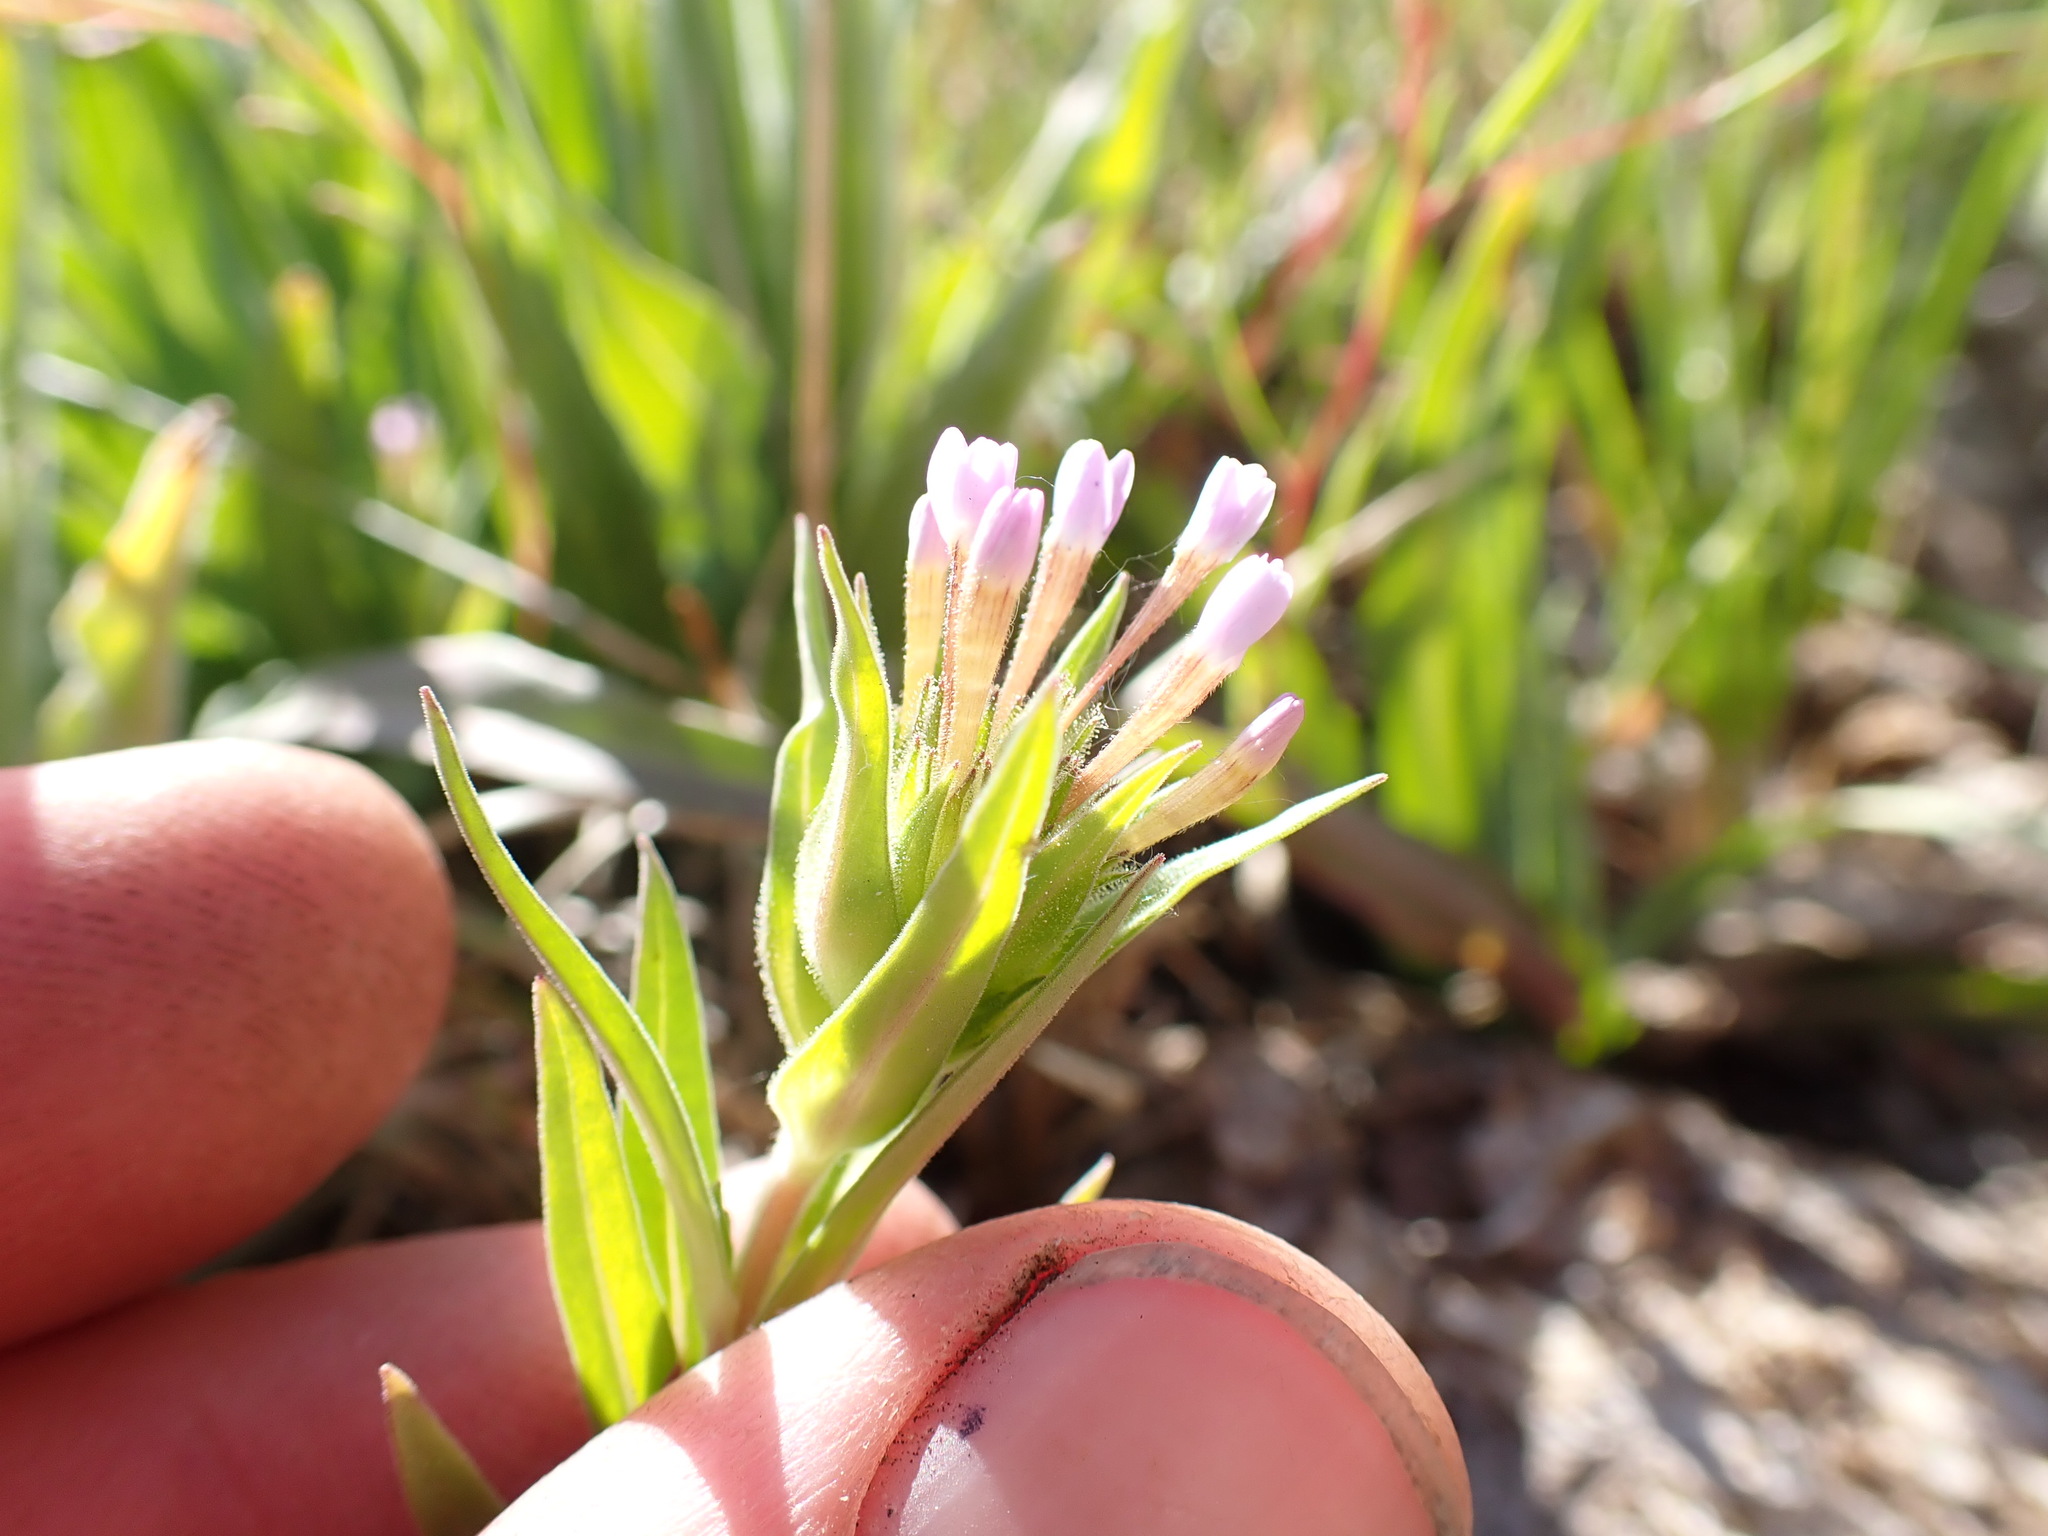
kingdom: Plantae
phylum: Tracheophyta
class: Magnoliopsida
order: Ericales
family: Polemoniaceae
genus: Collomia
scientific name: Collomia linearis
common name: Tiny trumpet
